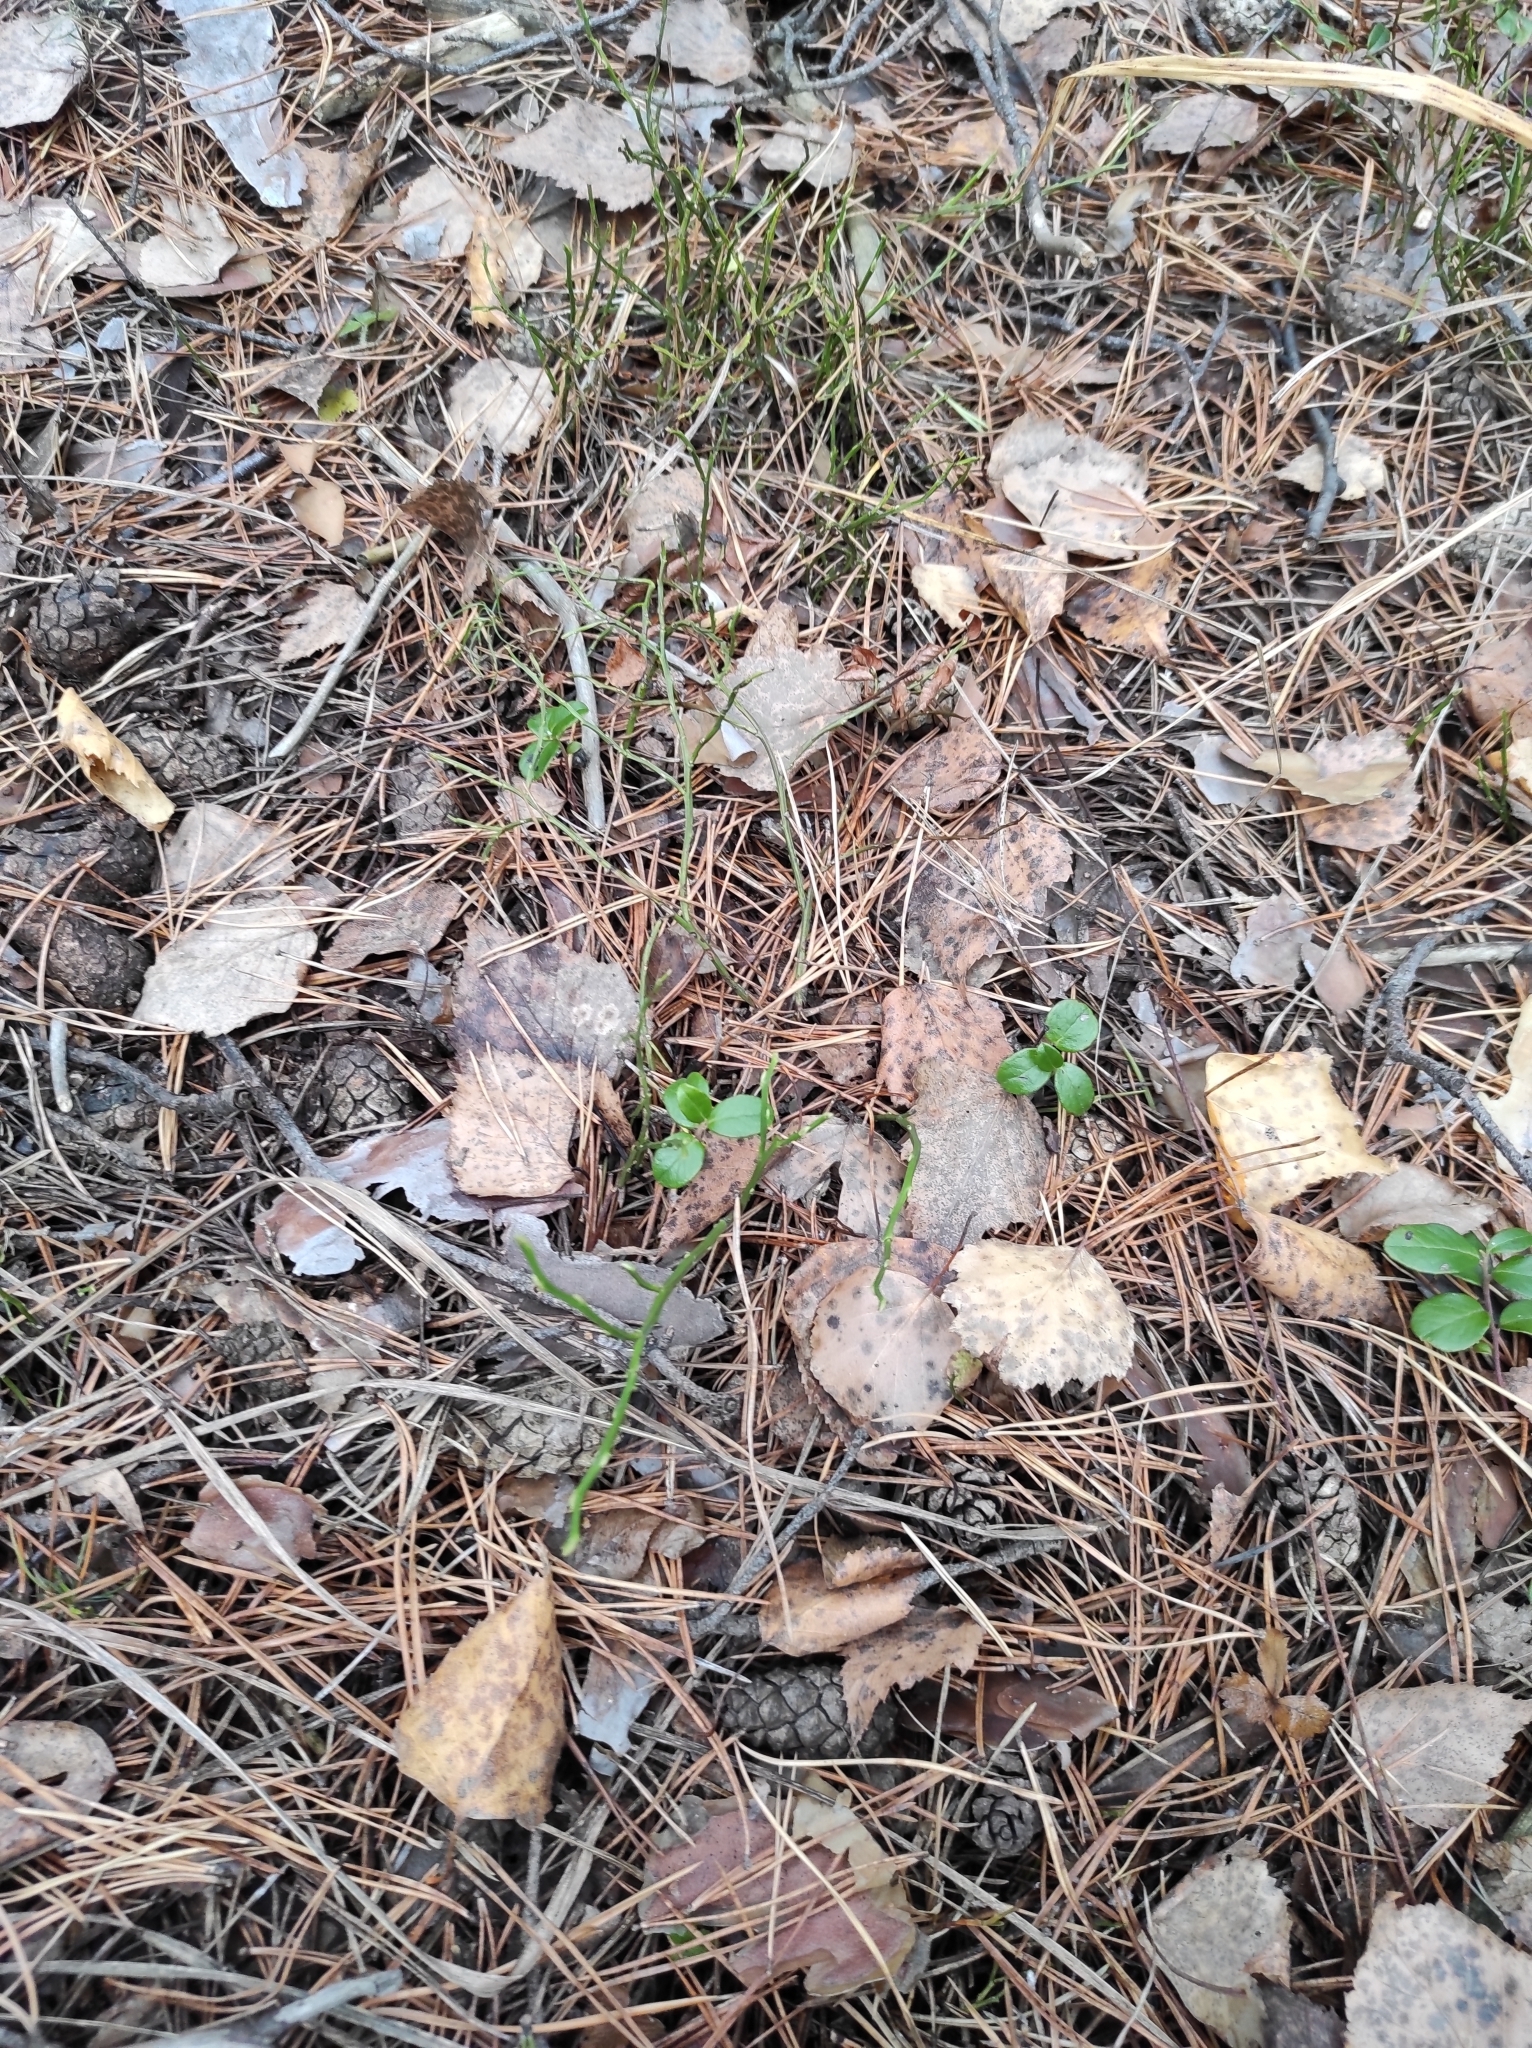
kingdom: Plantae
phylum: Tracheophyta
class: Magnoliopsida
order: Ericales
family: Ericaceae
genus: Vaccinium
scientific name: Vaccinium myrtillus
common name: Bilberry
